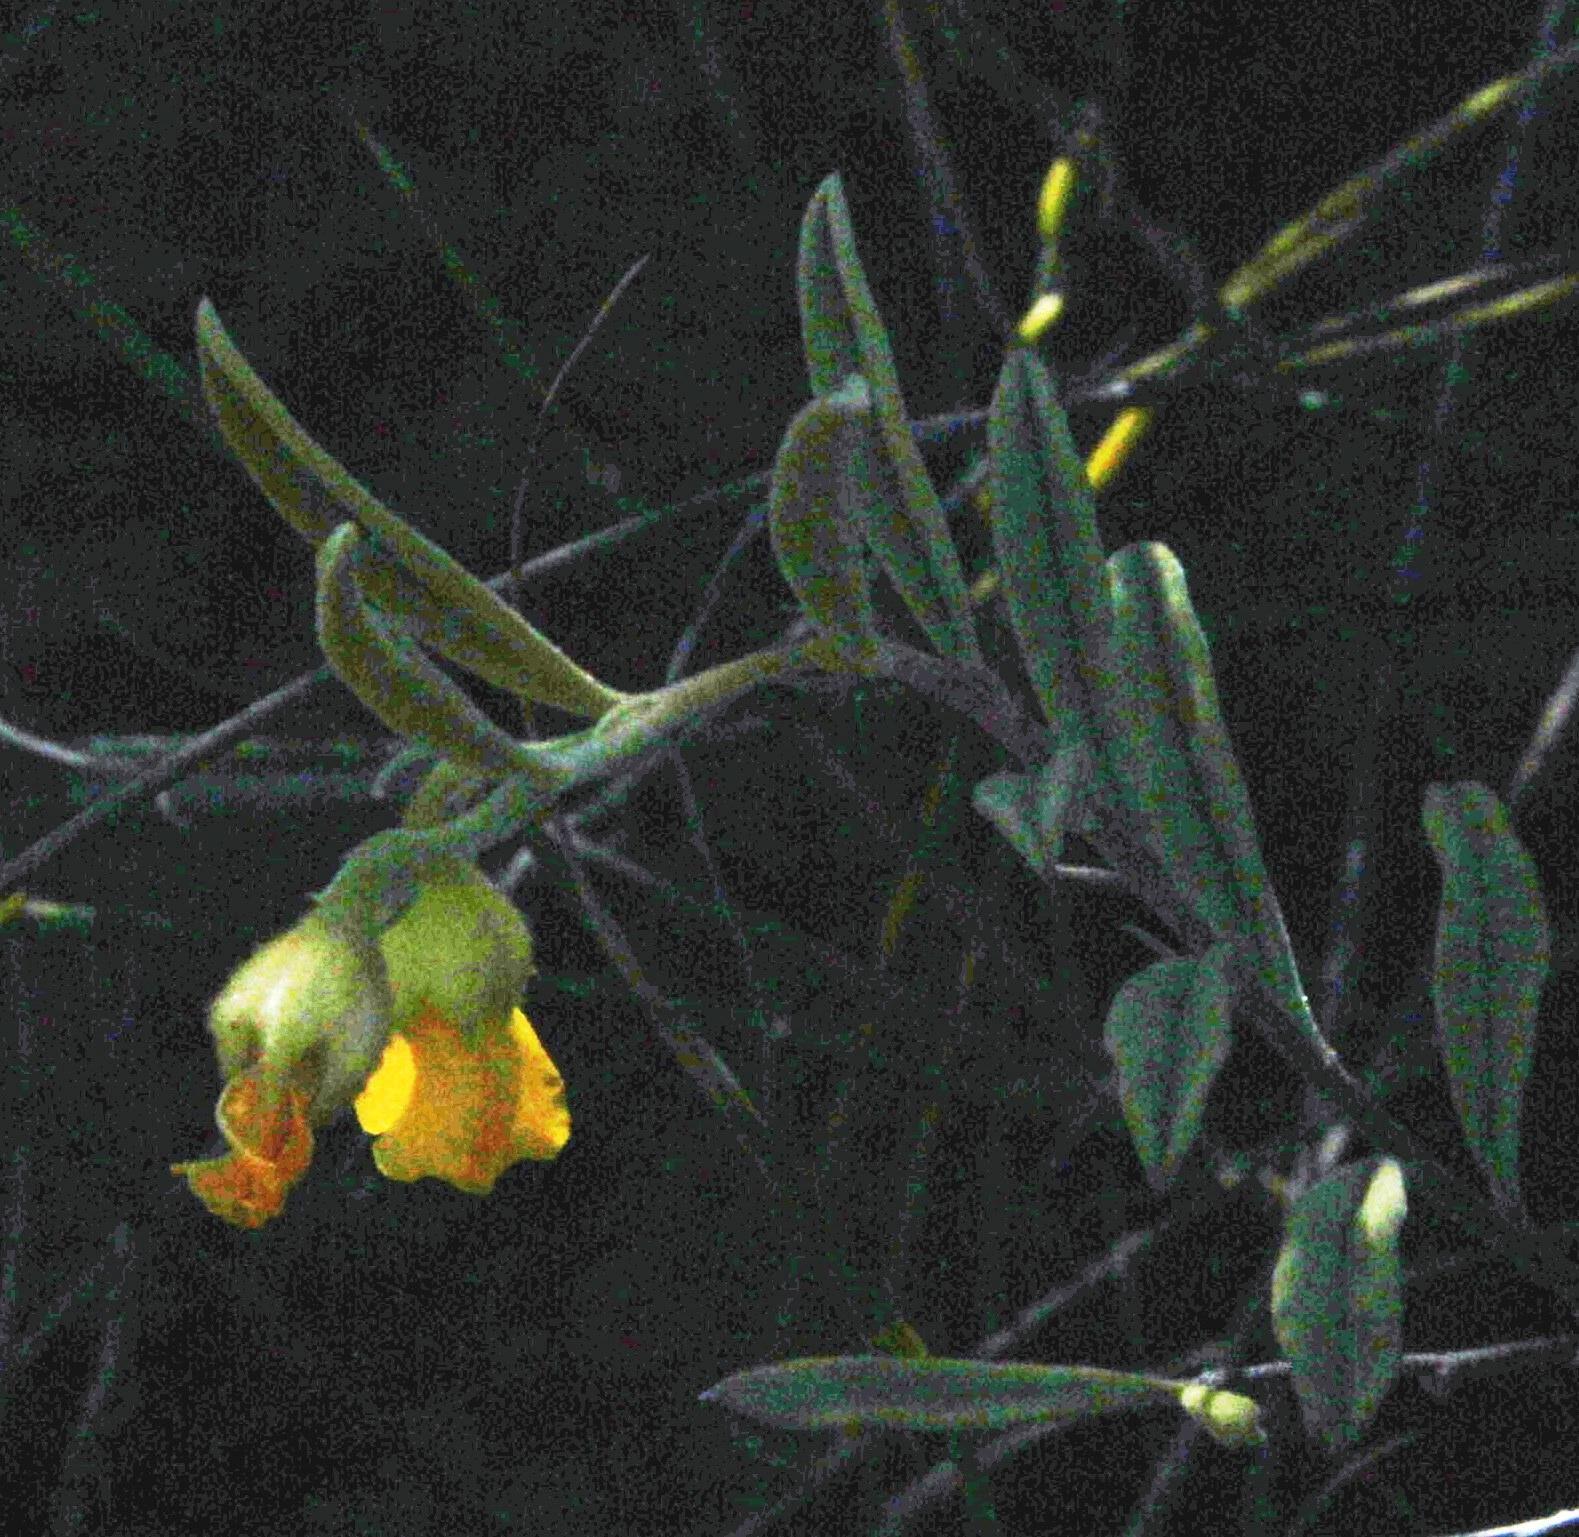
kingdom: Plantae
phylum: Tracheophyta
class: Magnoliopsida
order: Malvales
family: Malvaceae
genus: Hermannia
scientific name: Hermannia odorata
